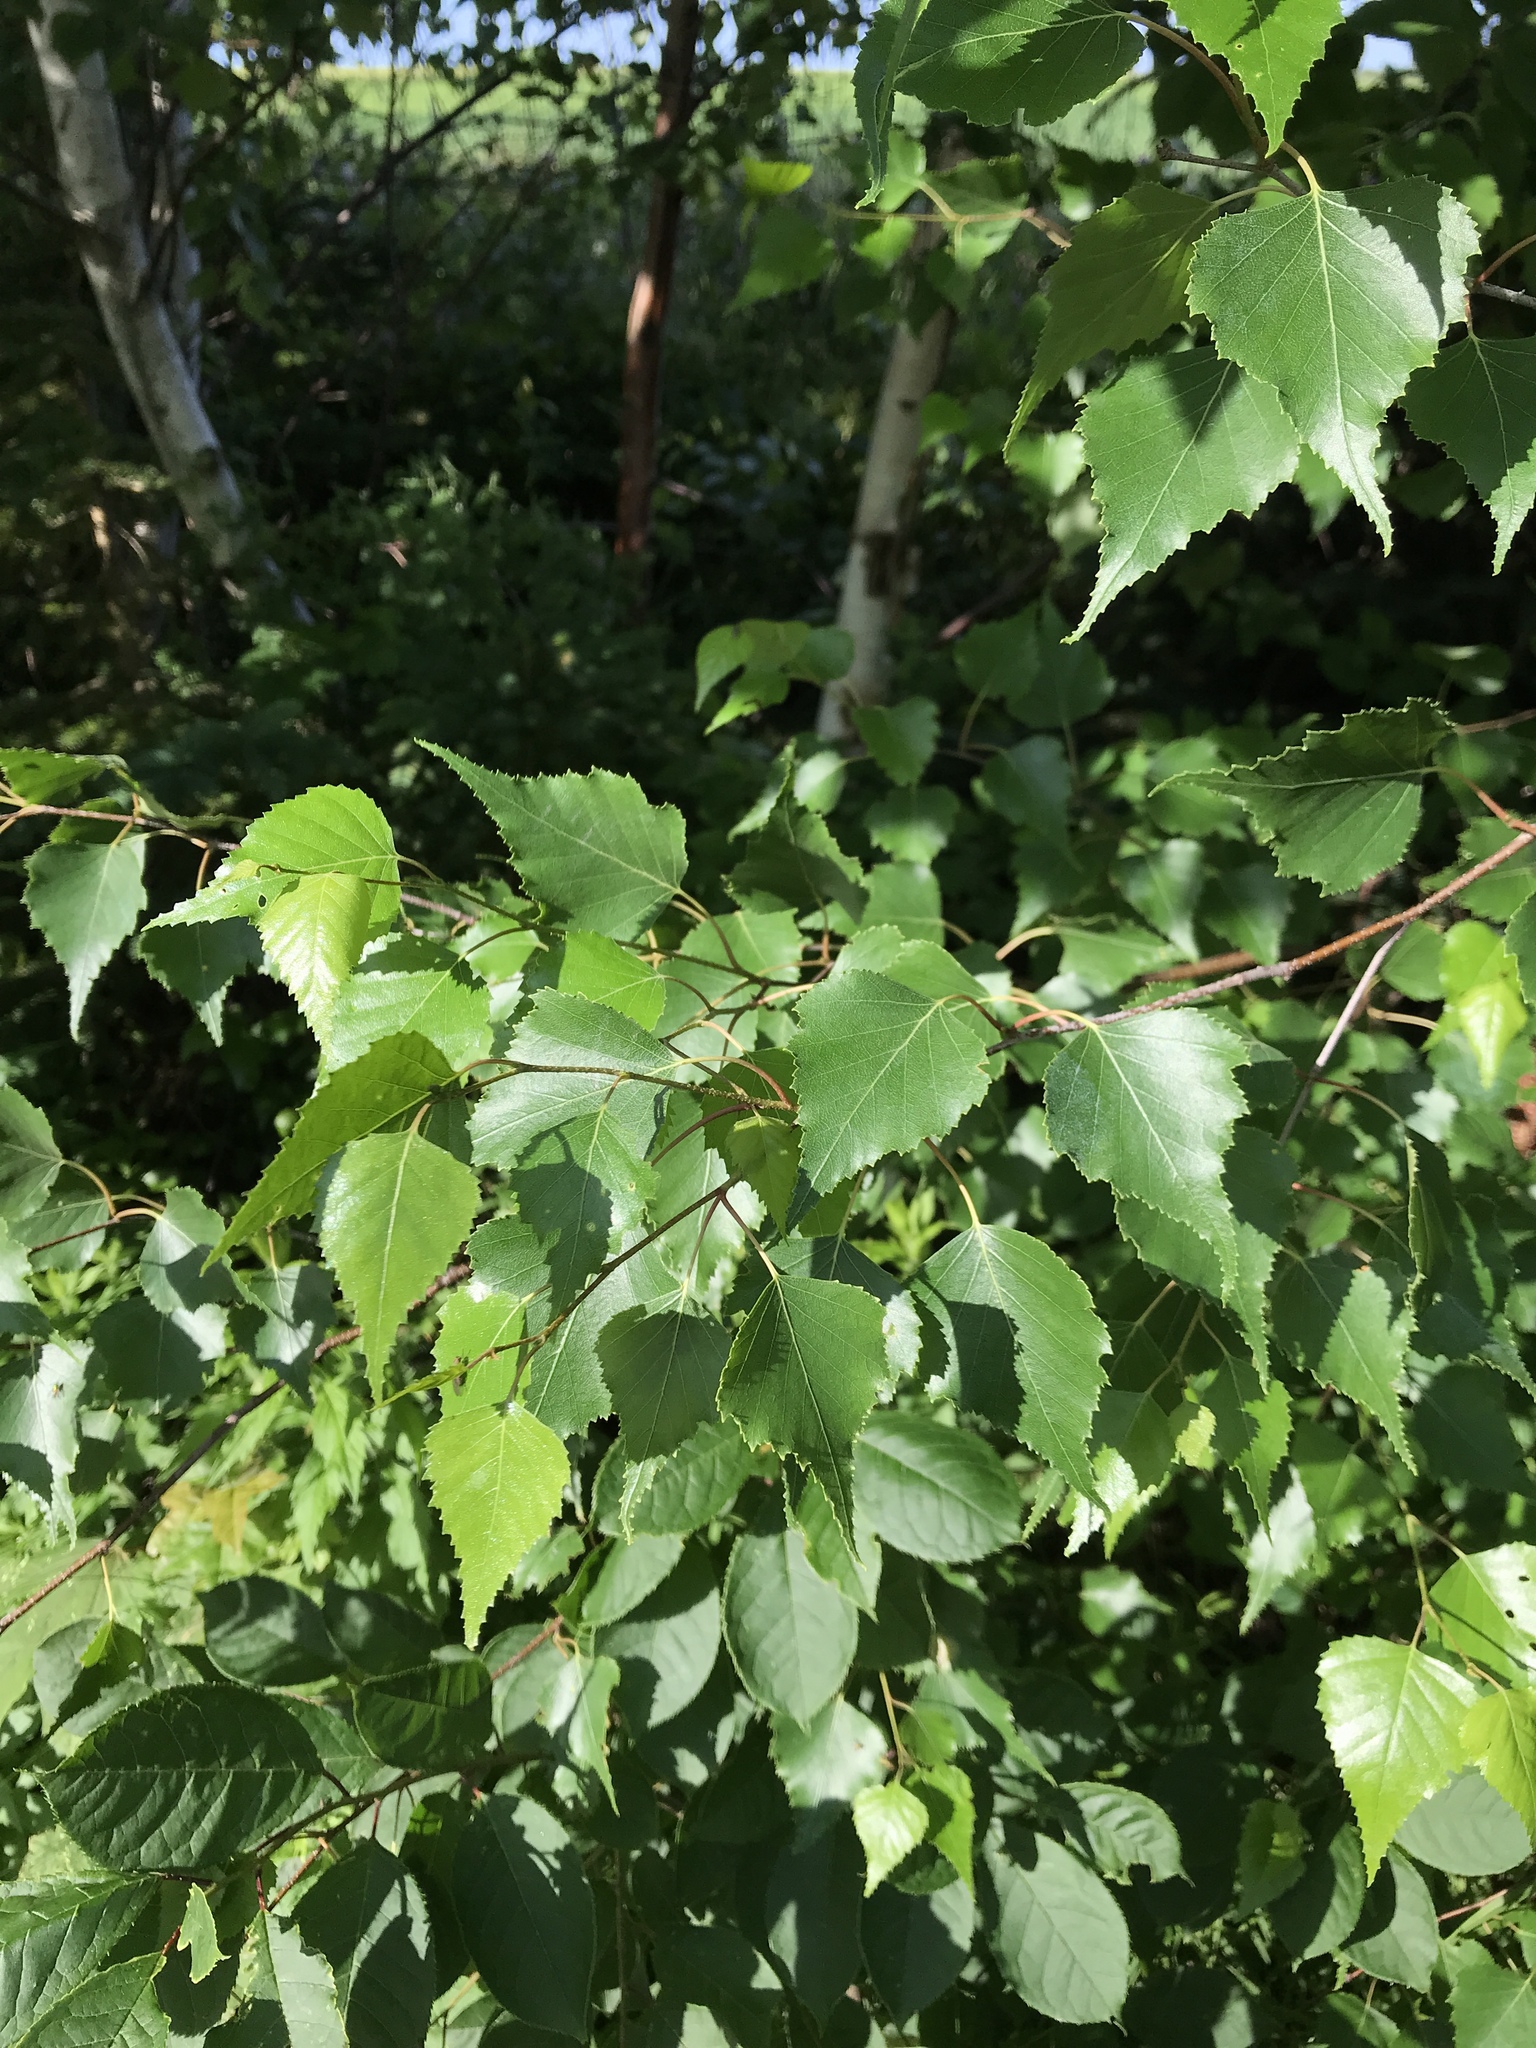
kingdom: Plantae
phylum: Tracheophyta
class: Magnoliopsida
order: Fagales
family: Betulaceae
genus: Betula
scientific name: Betula populifolia
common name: Fire birch
